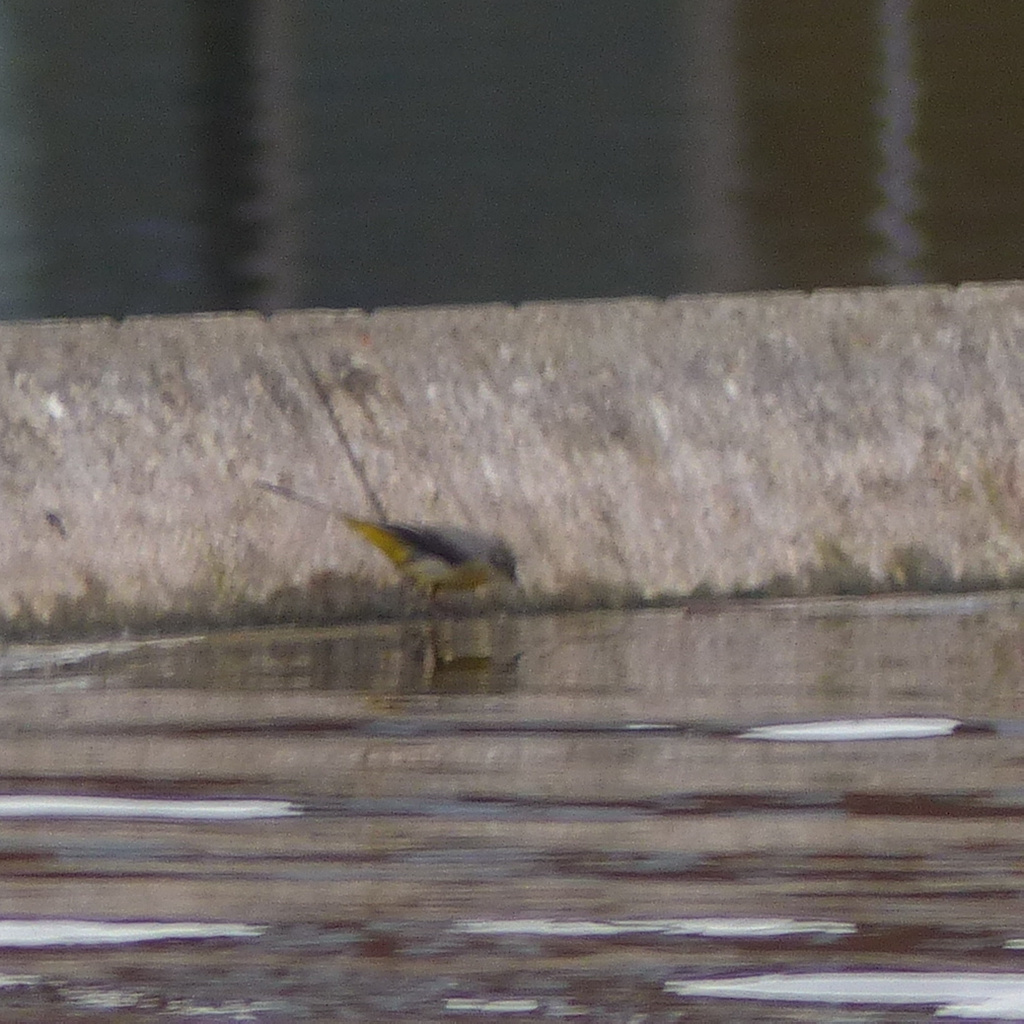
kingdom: Animalia
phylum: Chordata
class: Aves
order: Passeriformes
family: Motacillidae
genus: Motacilla
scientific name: Motacilla cinerea
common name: Grey wagtail
